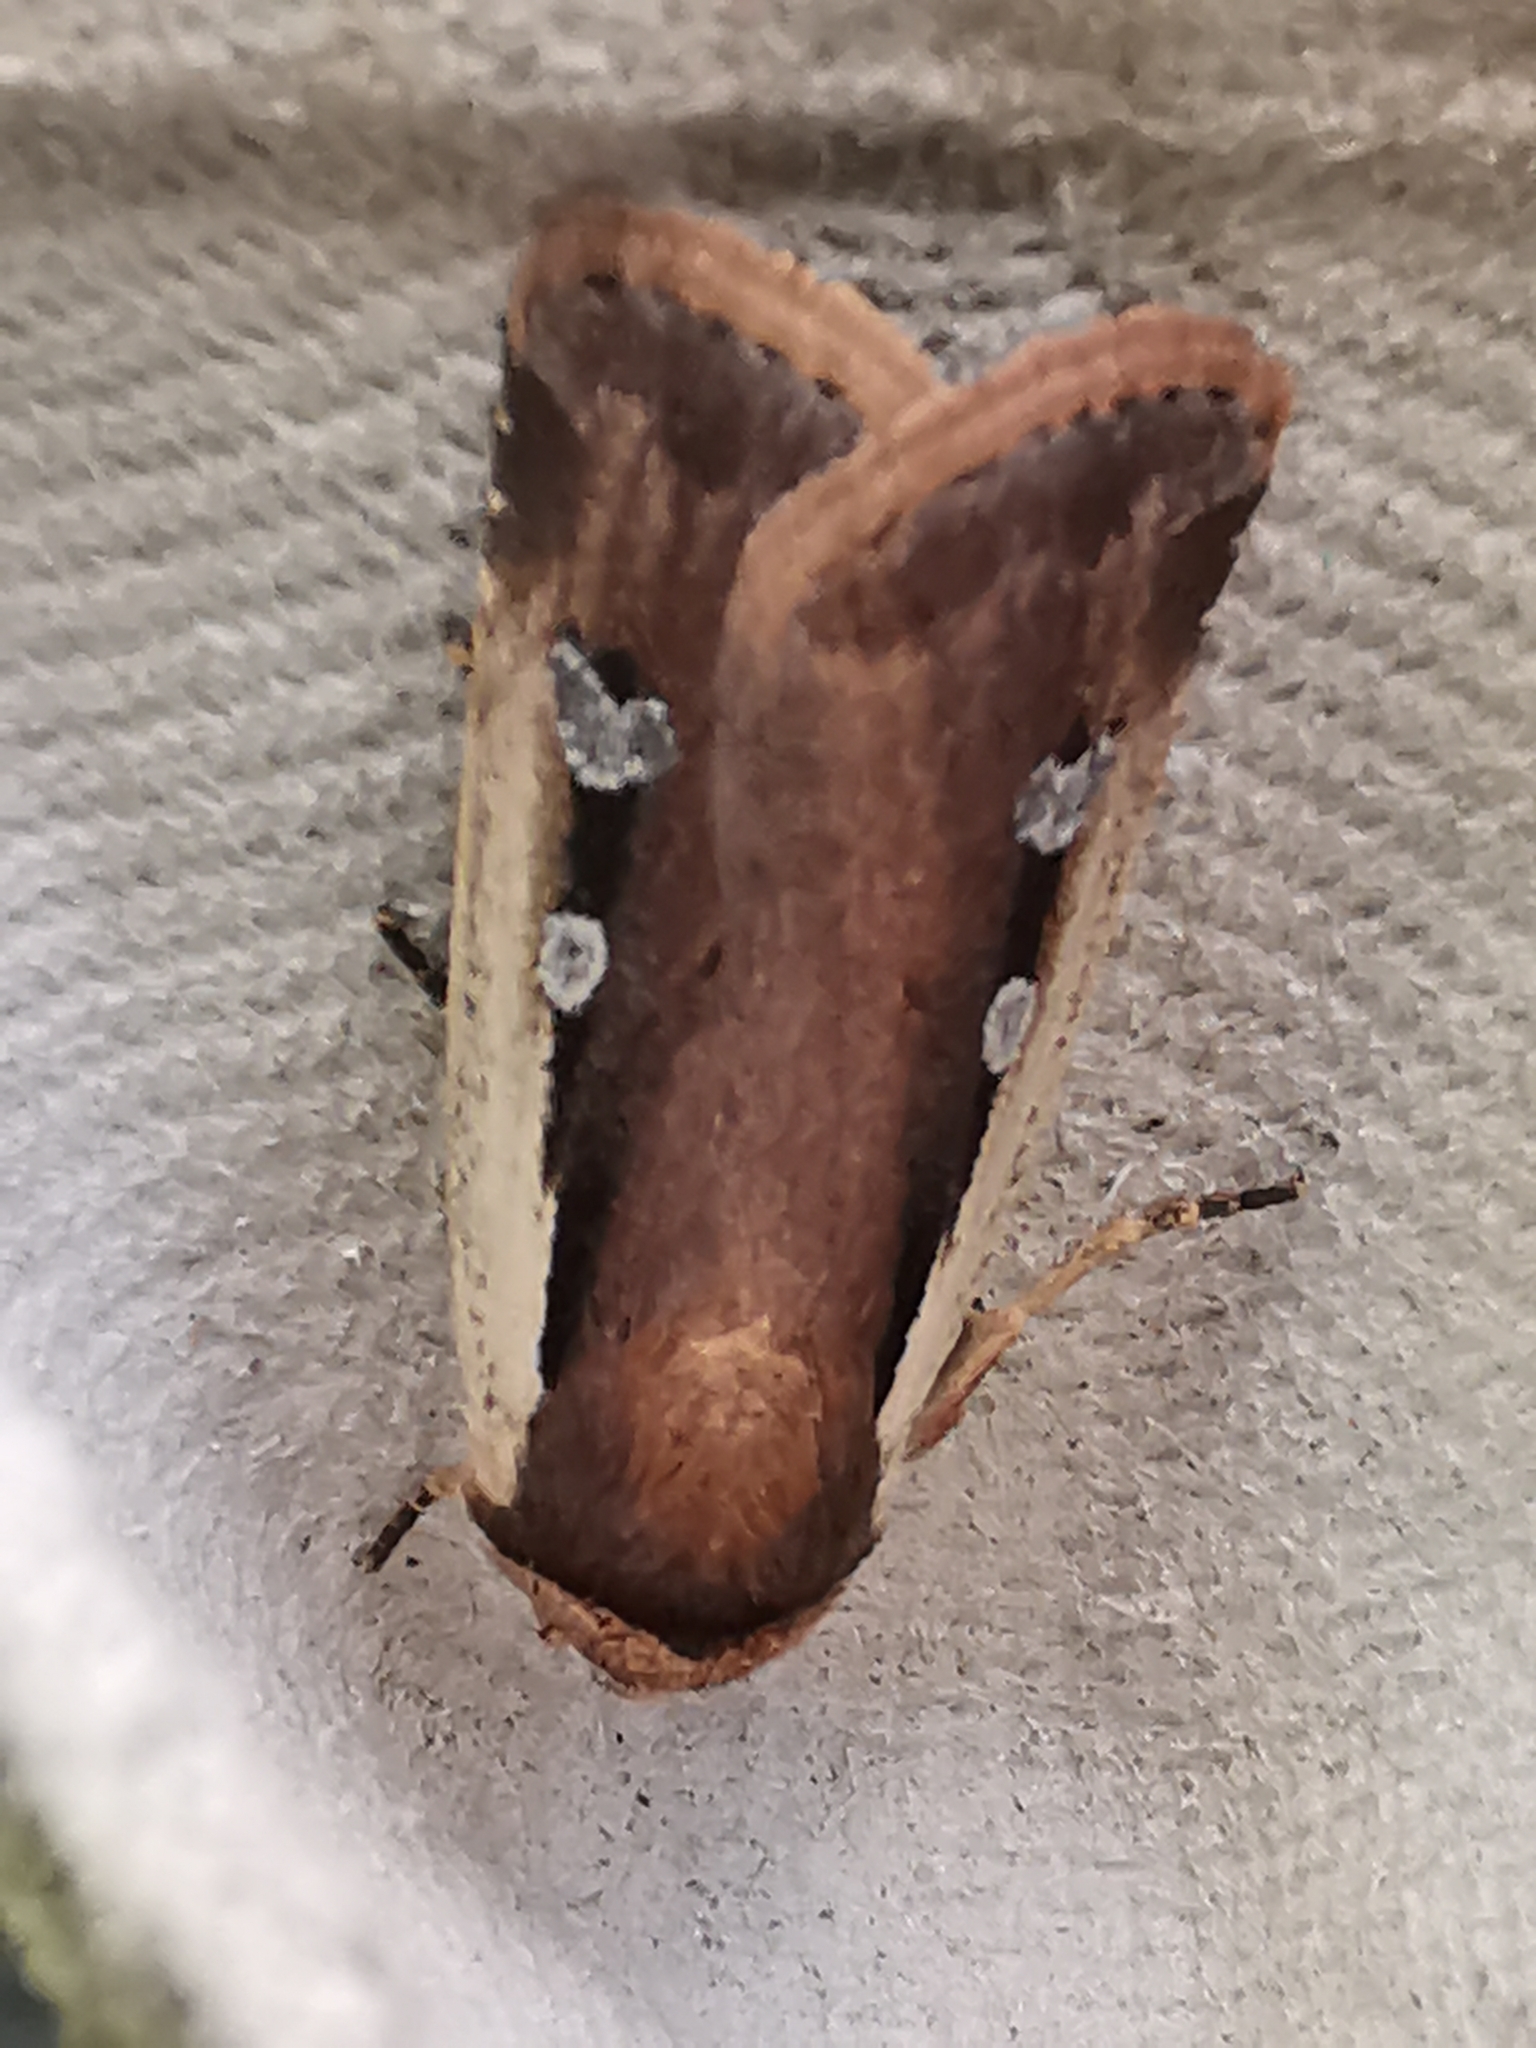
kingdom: Animalia
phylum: Arthropoda
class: Insecta
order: Lepidoptera
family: Noctuidae
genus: Ochropleura
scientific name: Ochropleura plecta
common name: Flame shoulder
